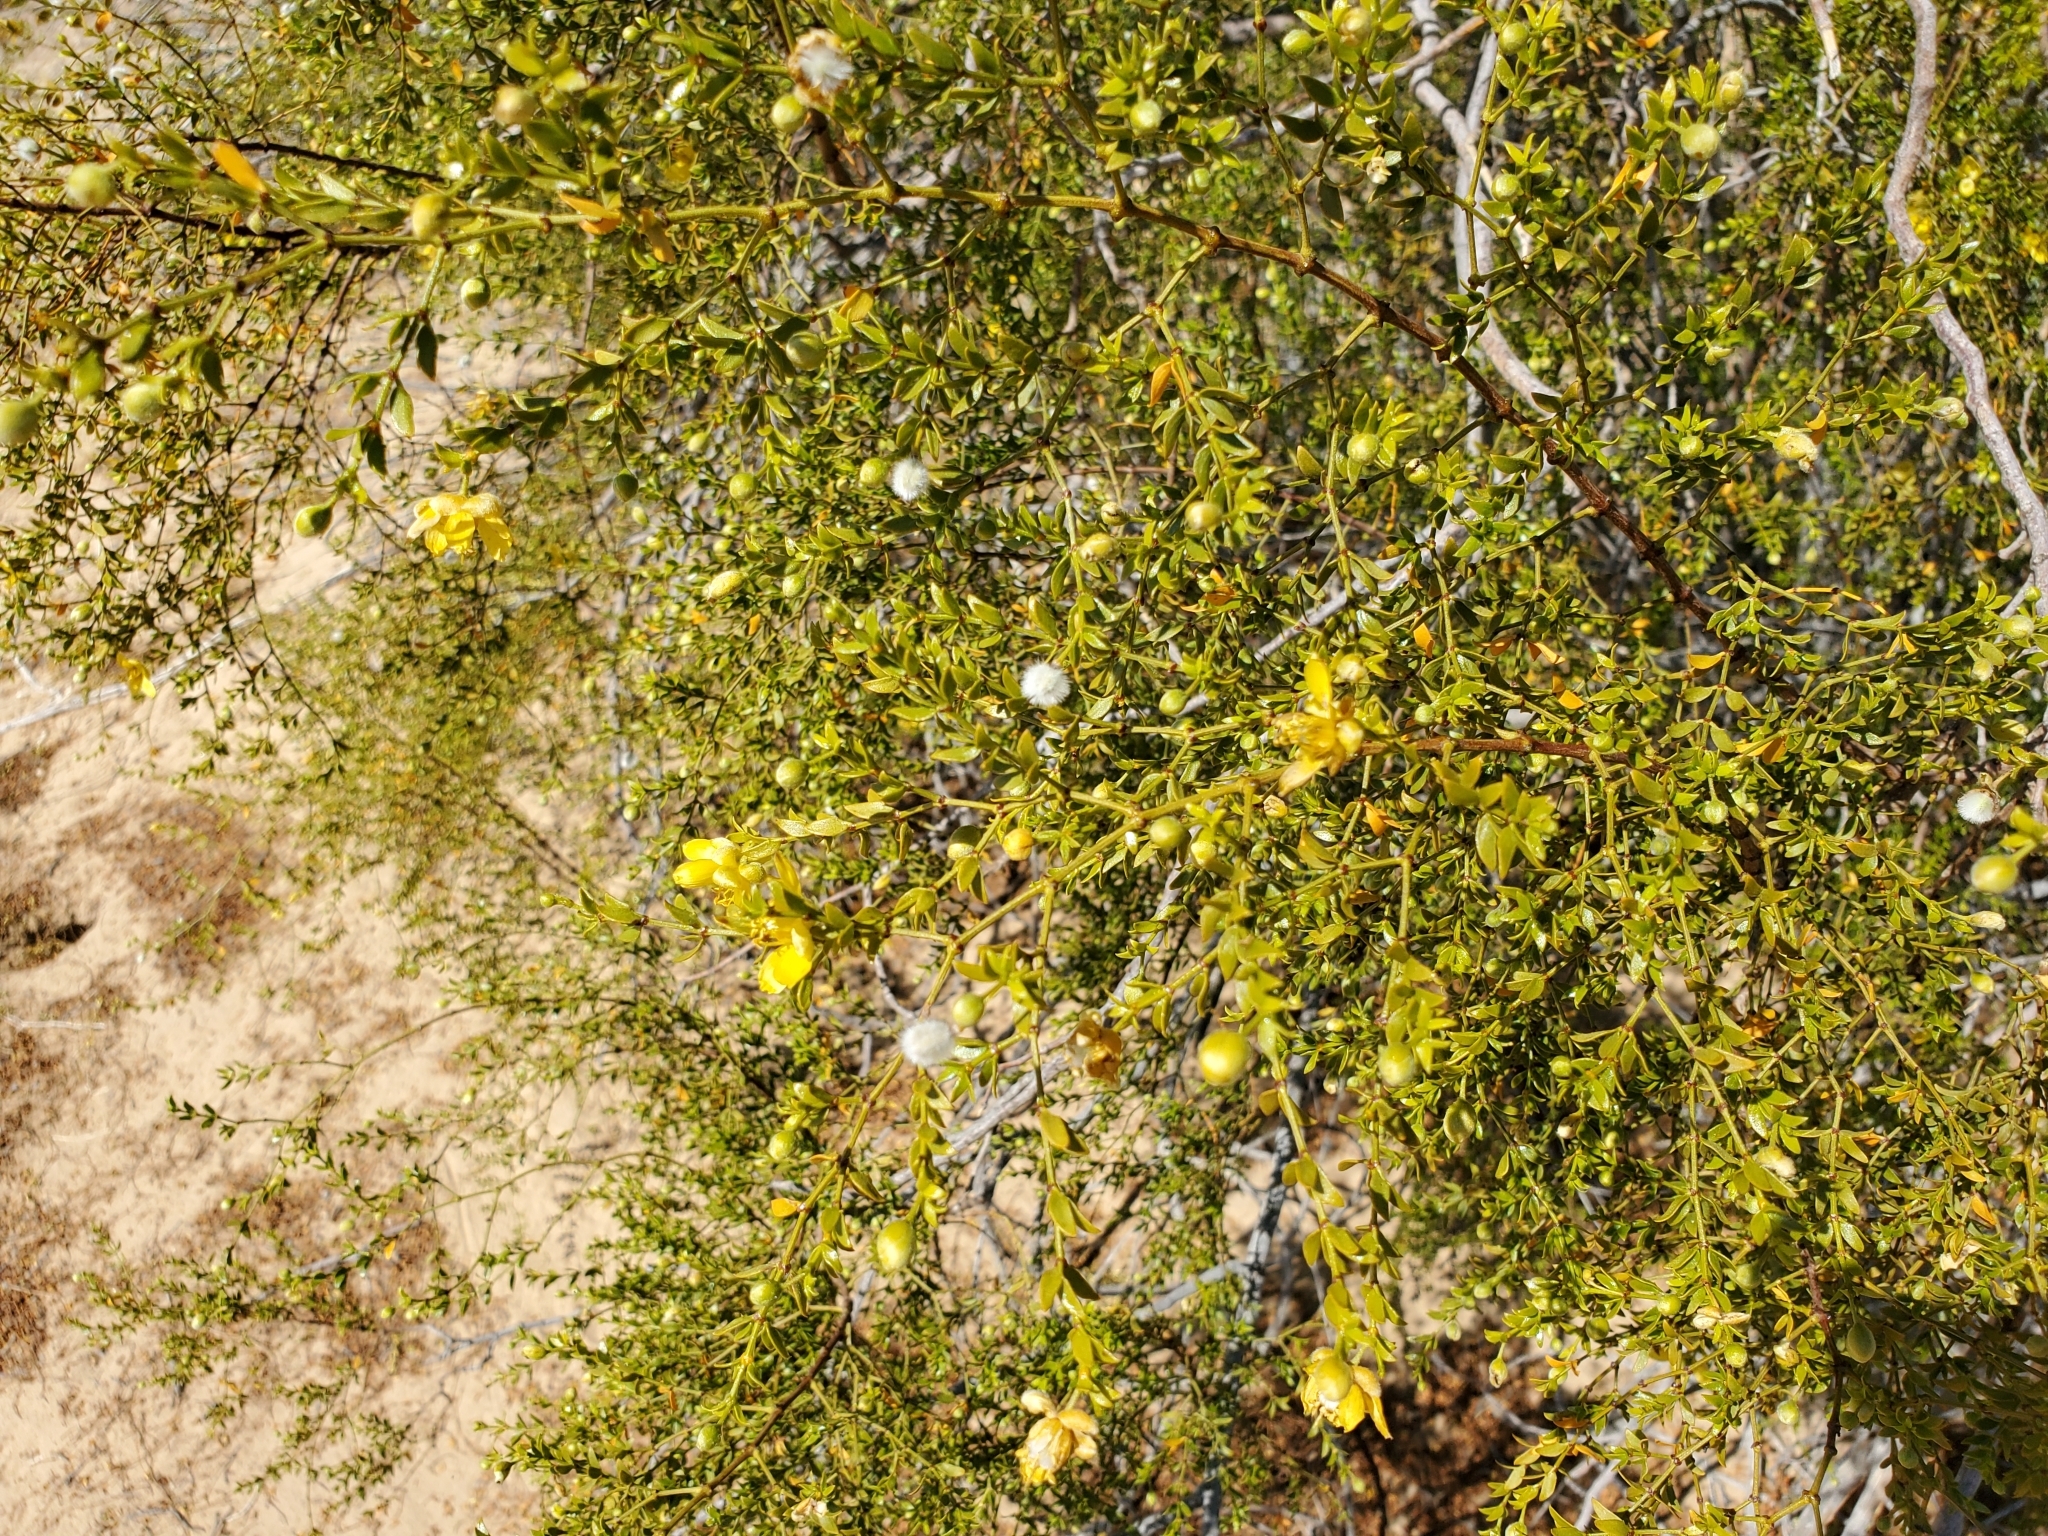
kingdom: Plantae
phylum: Tracheophyta
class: Magnoliopsida
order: Zygophyllales
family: Zygophyllaceae
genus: Larrea
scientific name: Larrea tridentata
